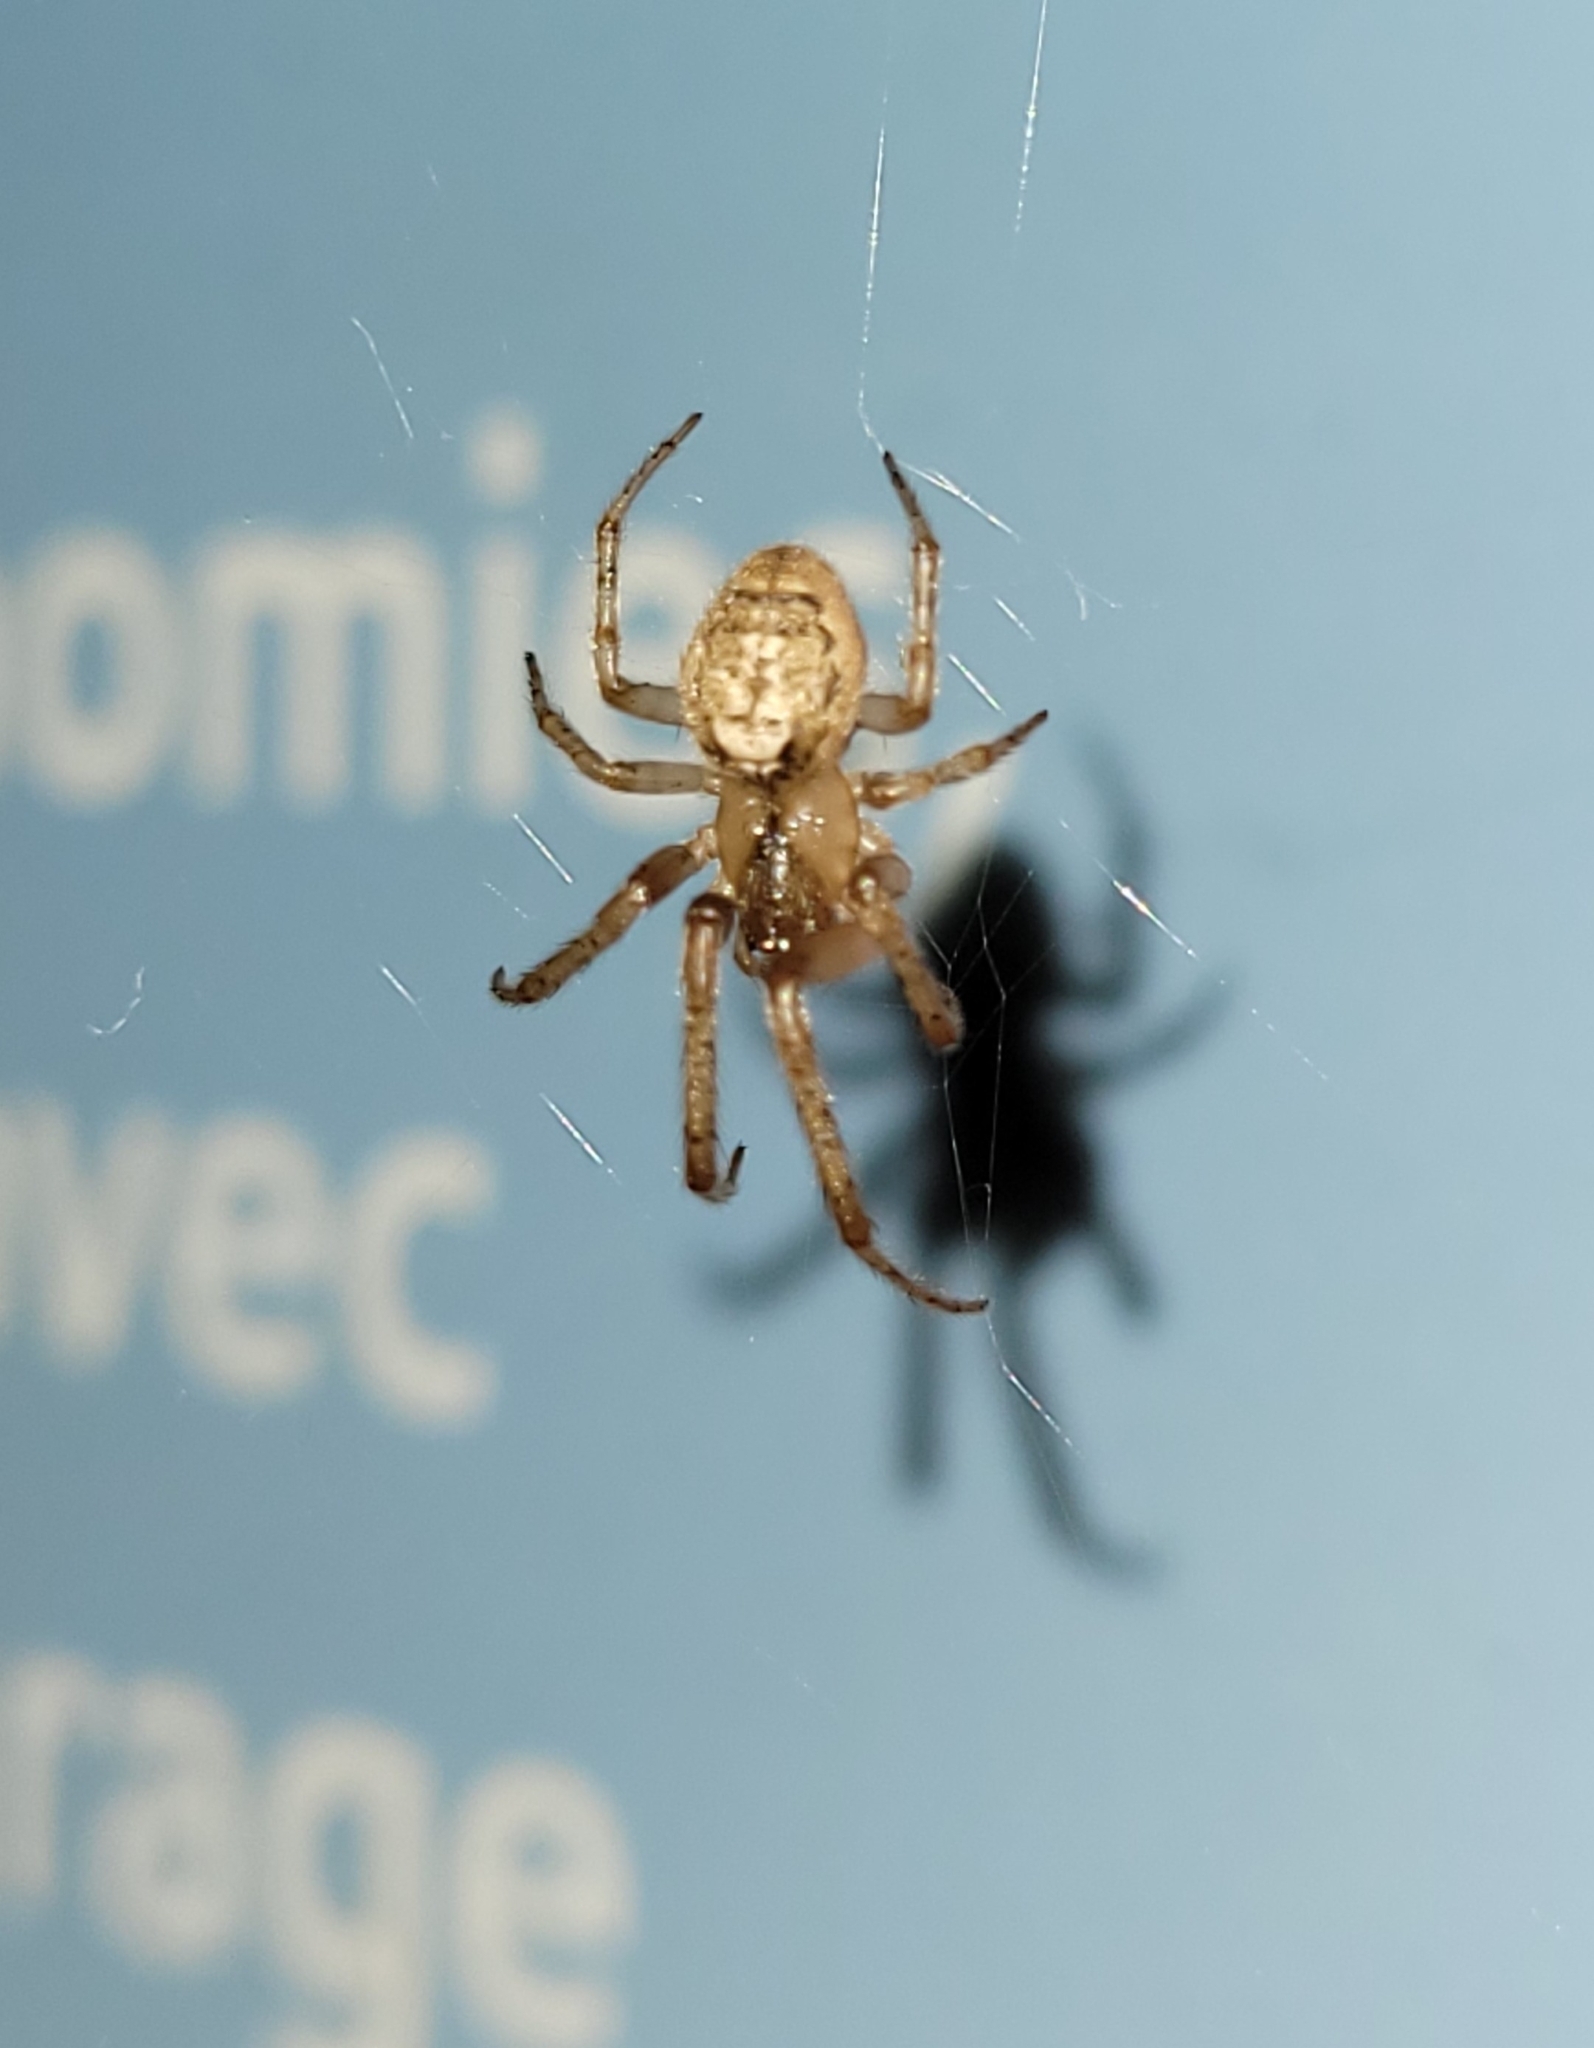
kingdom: Animalia
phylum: Arthropoda
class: Arachnida
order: Araneae
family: Araneidae
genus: Zygiella
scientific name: Zygiella x-notata
